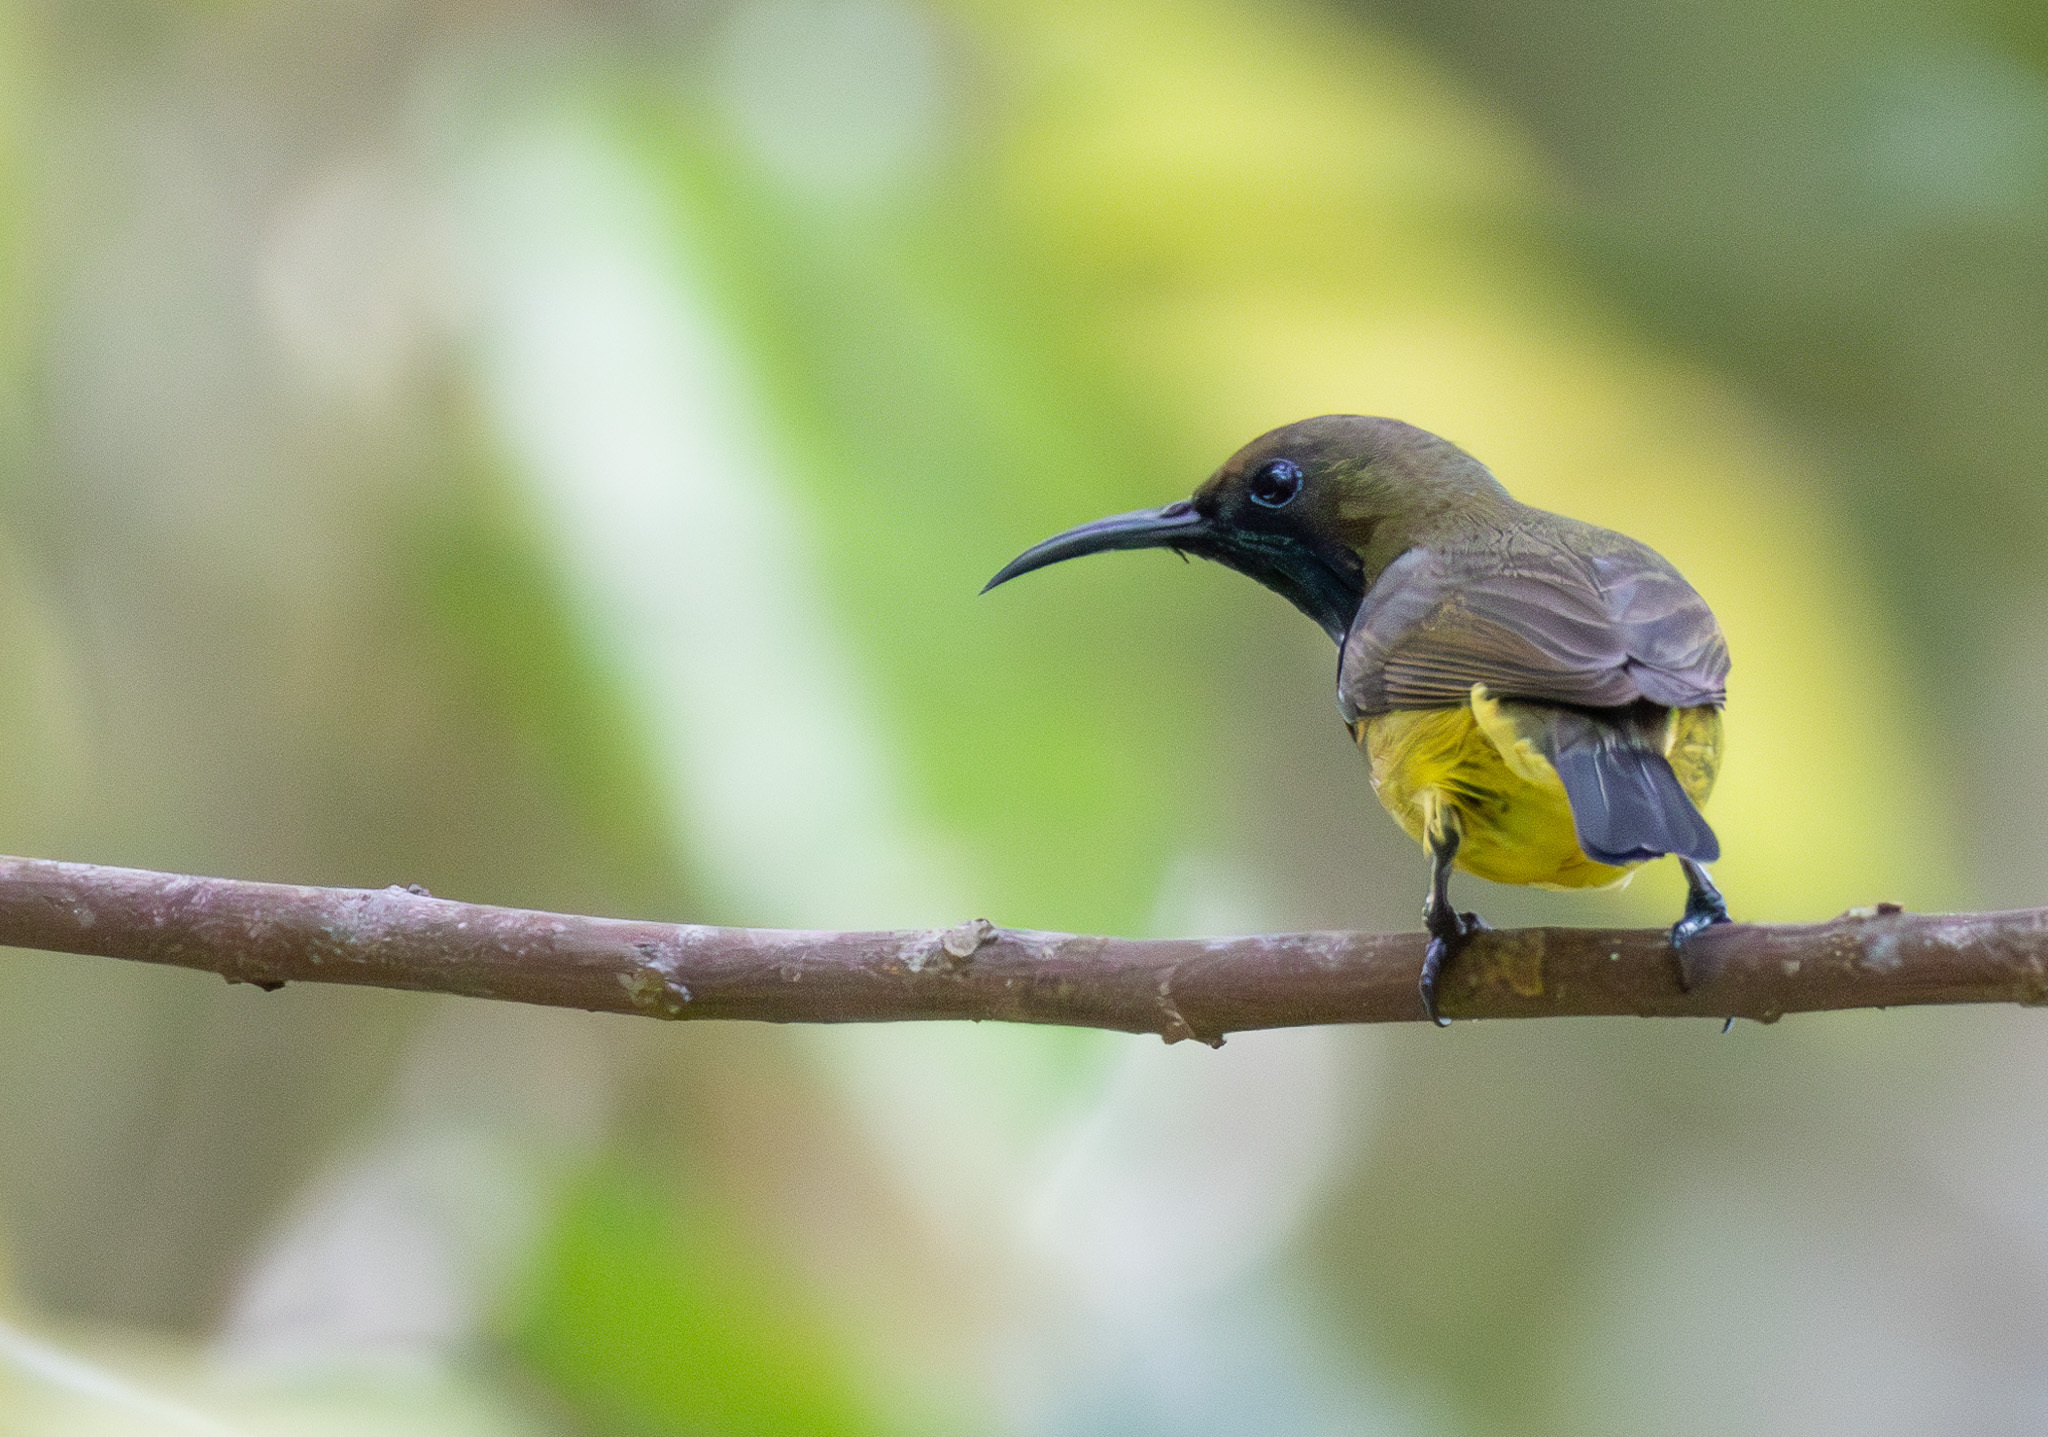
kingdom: Animalia
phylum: Chordata
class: Aves
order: Passeriformes
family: Nectariniidae
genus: Cinnyris
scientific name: Cinnyris
